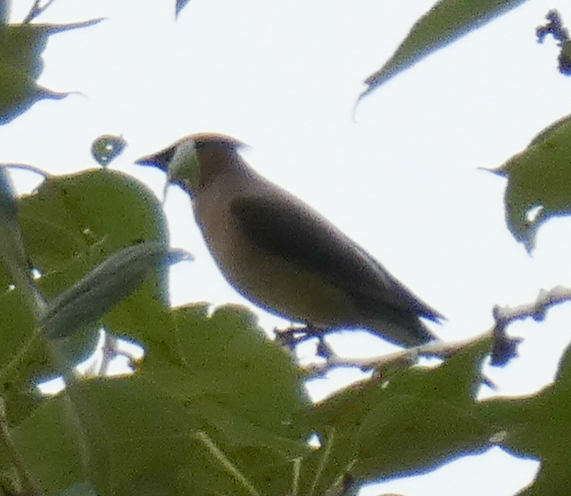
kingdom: Animalia
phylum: Chordata
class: Aves
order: Passeriformes
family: Bombycillidae
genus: Bombycilla
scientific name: Bombycilla cedrorum
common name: Cedar waxwing
